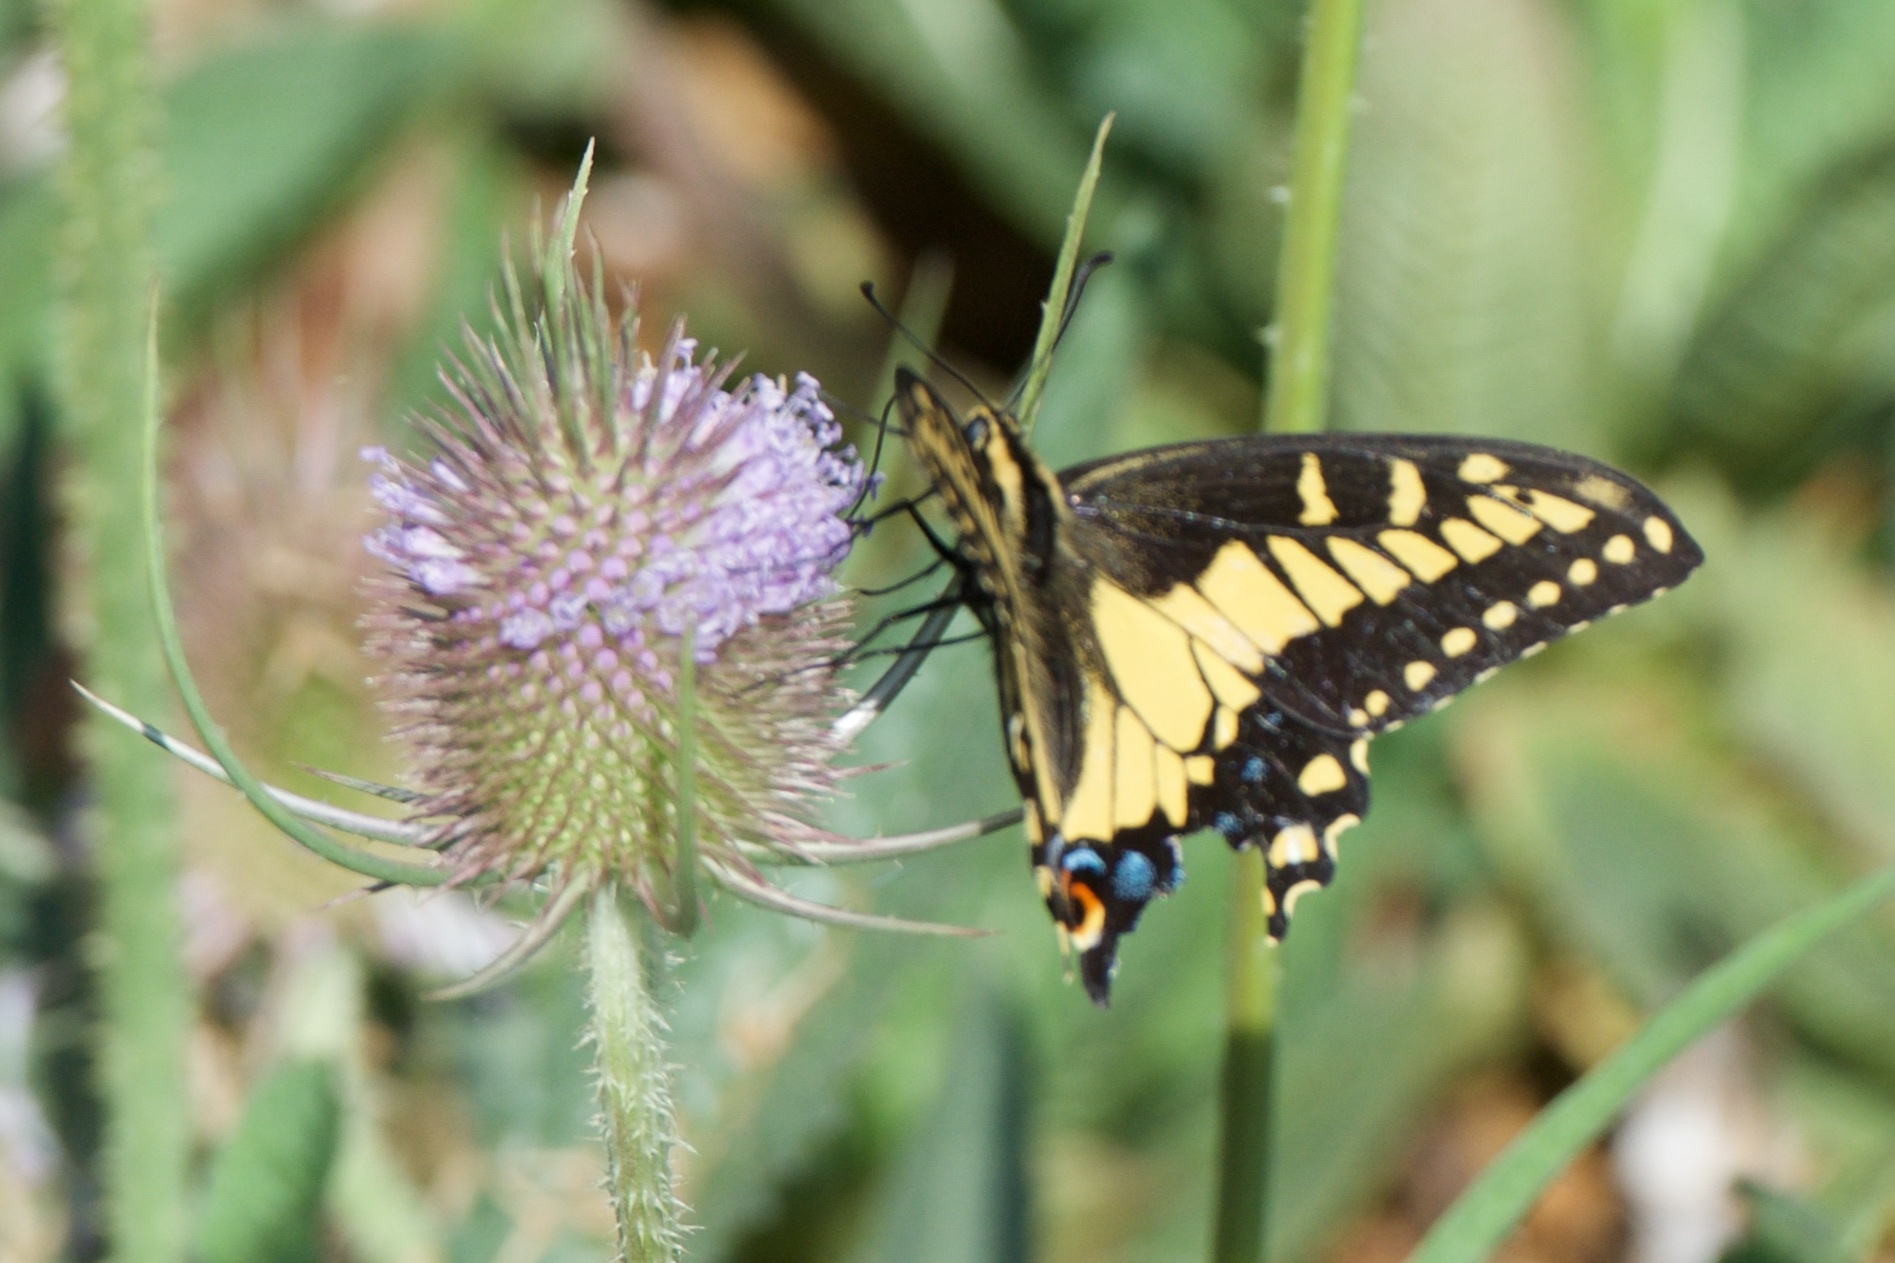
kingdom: Animalia
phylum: Arthropoda
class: Insecta
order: Lepidoptera
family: Papilionidae
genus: Papilio
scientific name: Papilio zelicaon
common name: Anise swallowtail
